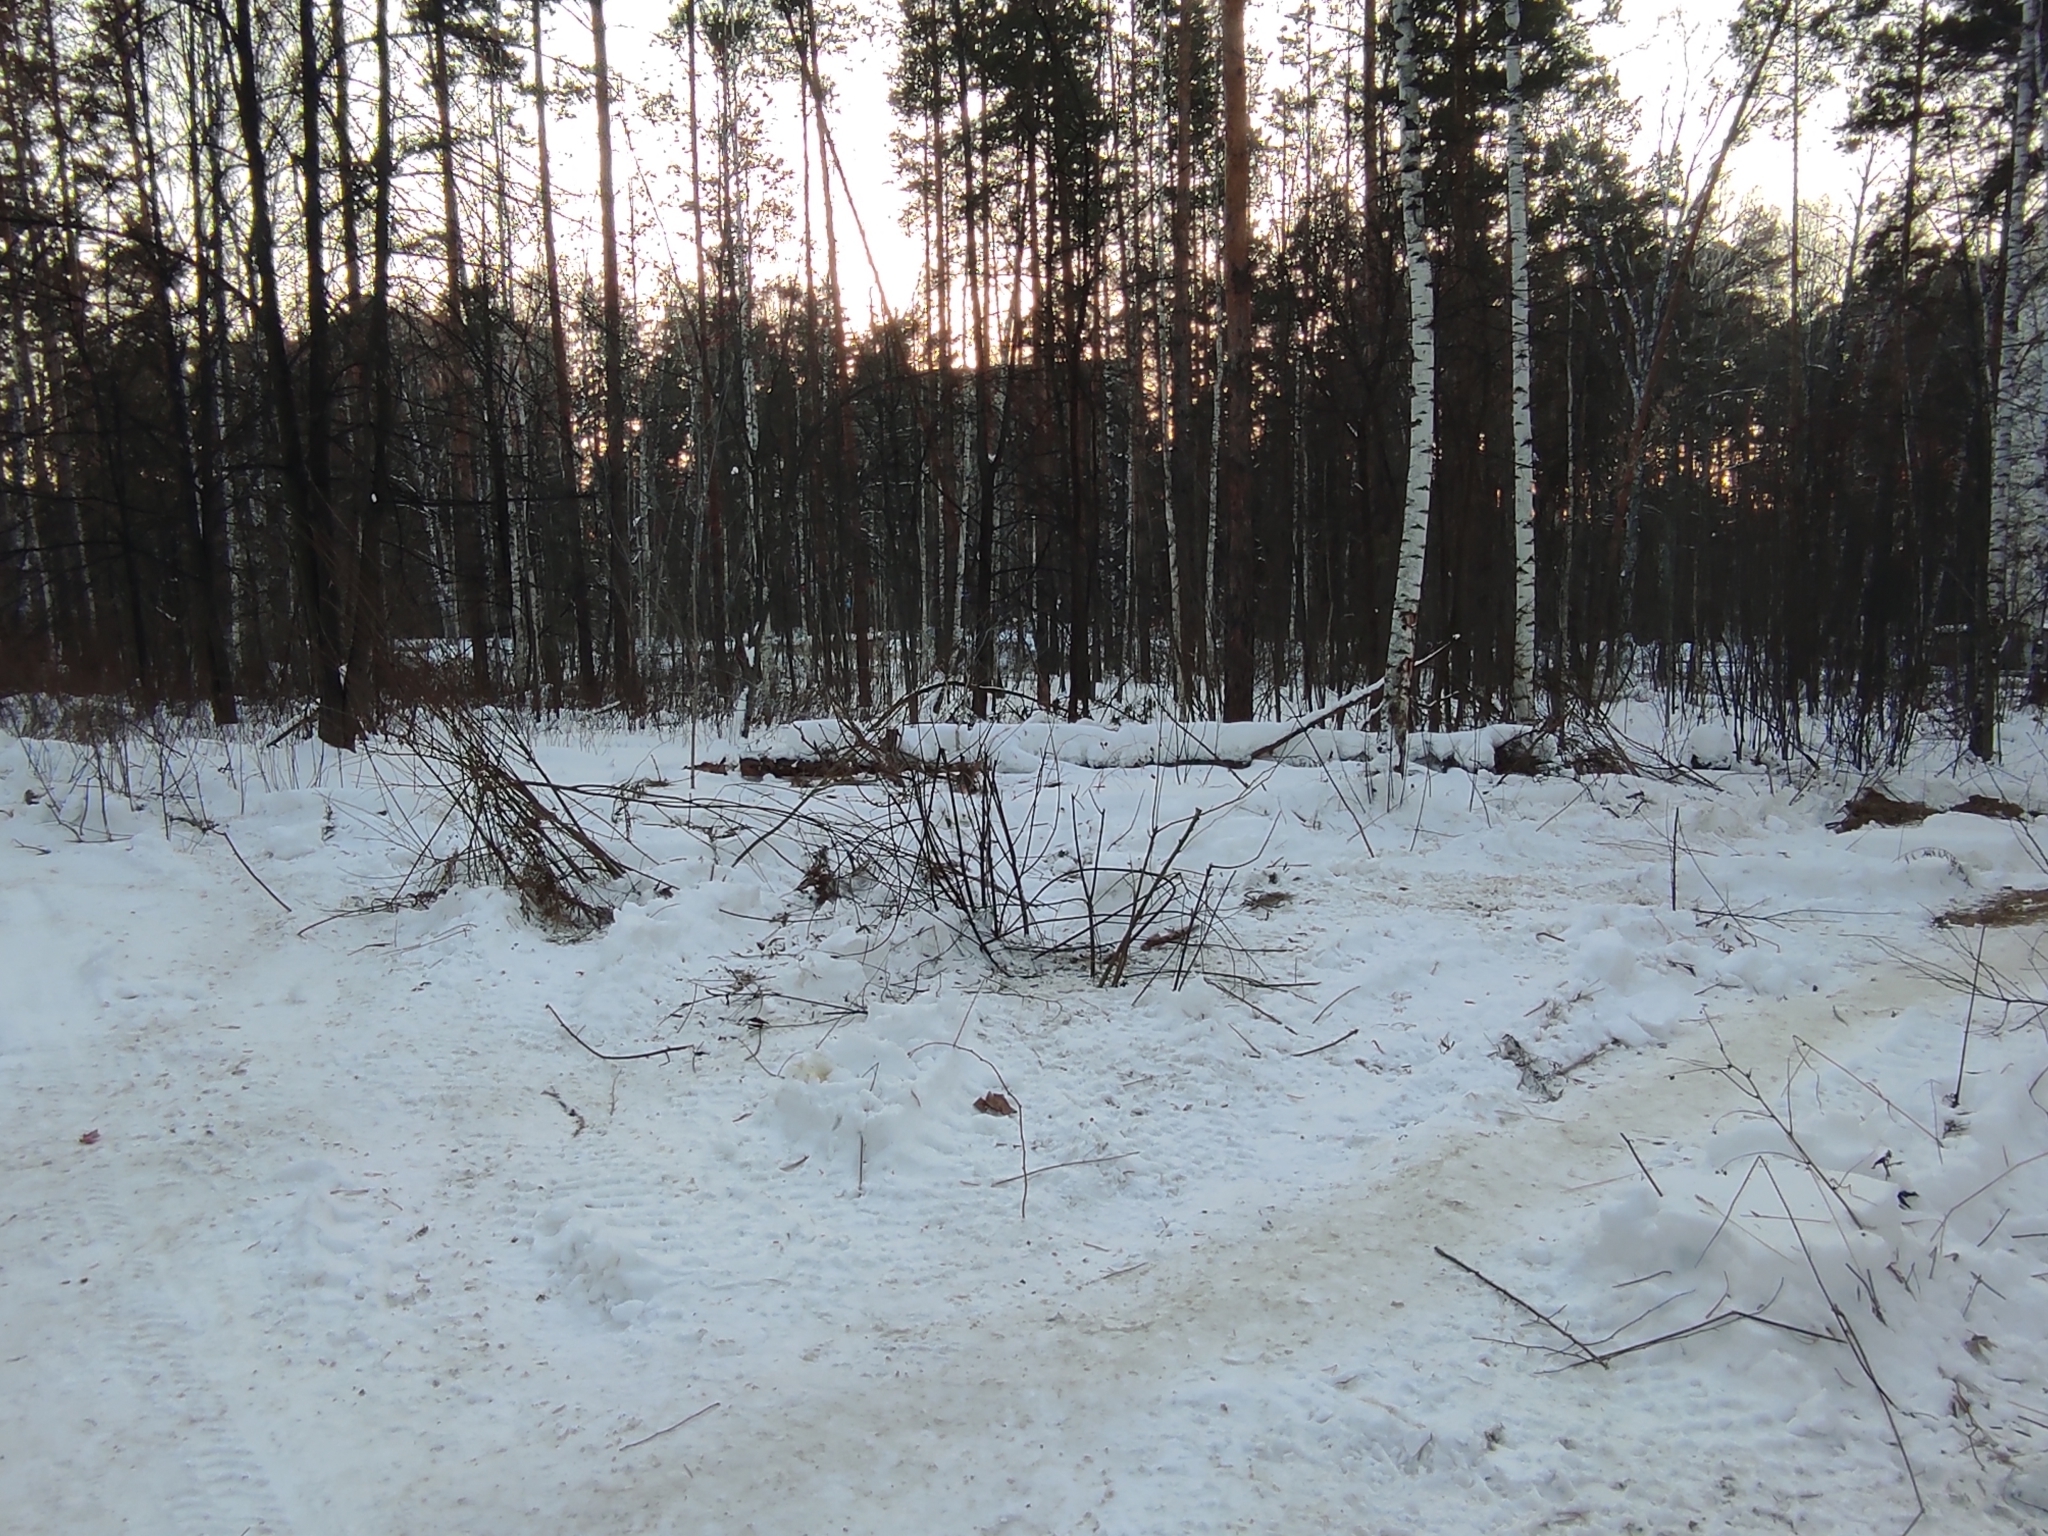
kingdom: Plantae
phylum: Tracheophyta
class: Magnoliopsida
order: Fagales
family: Betulaceae
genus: Betula
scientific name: Betula pendula
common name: Silver birch
